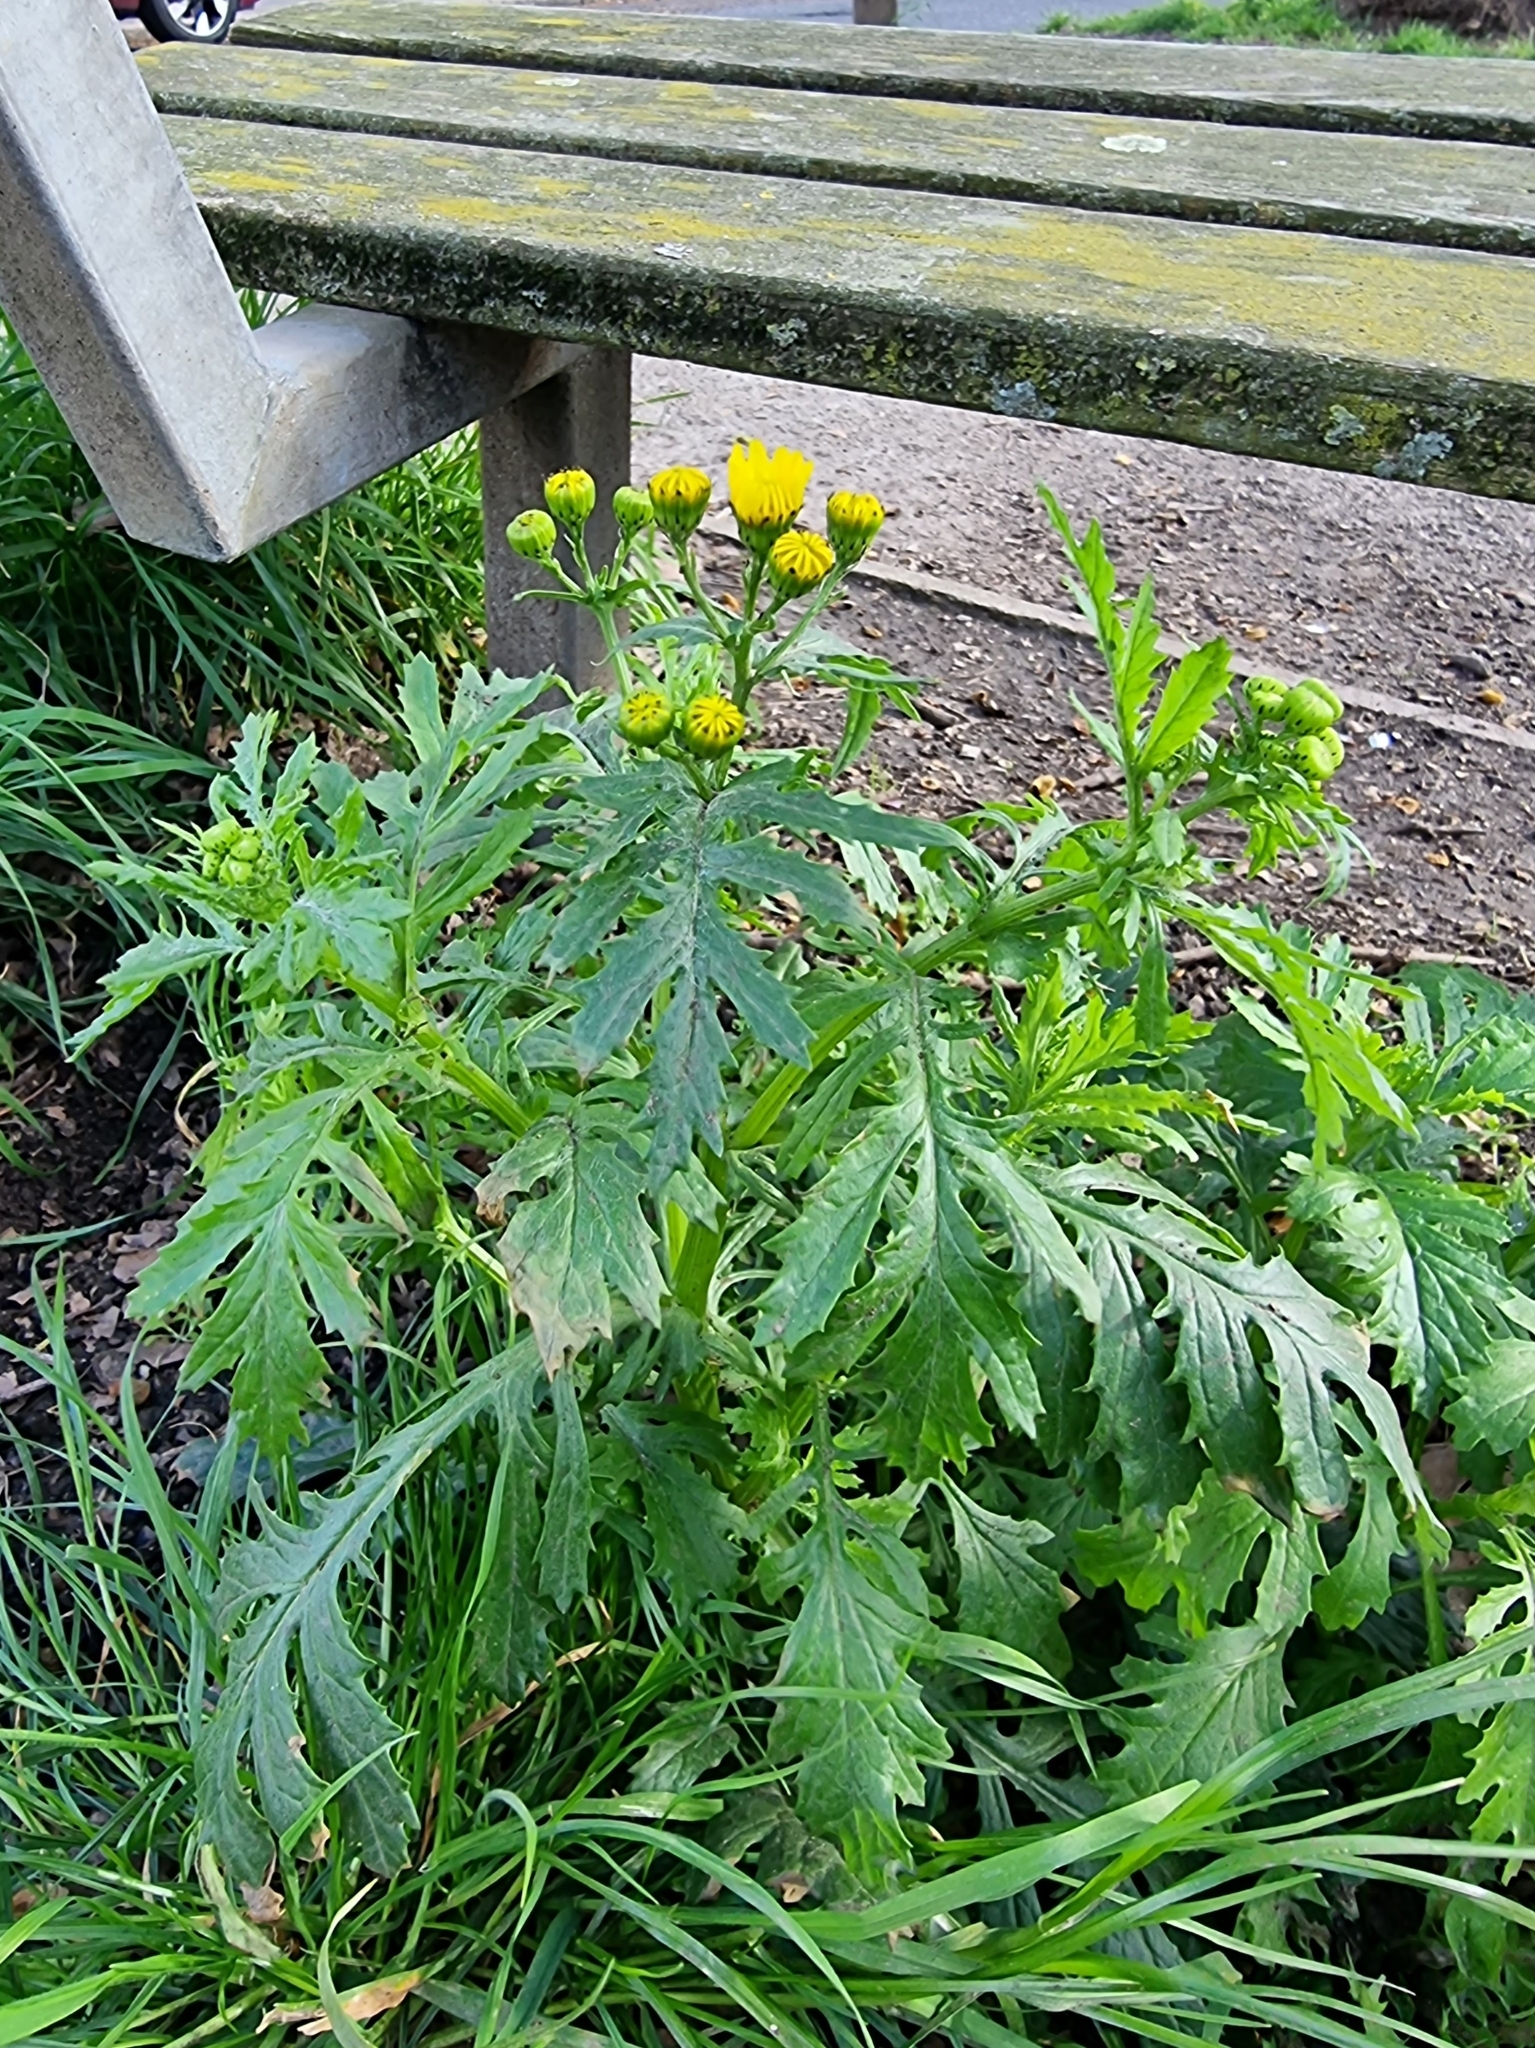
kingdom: Plantae
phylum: Tracheophyta
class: Magnoliopsida
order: Asterales
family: Asteraceae
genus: Senecio
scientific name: Senecio squalidus
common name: Oxford ragwort
